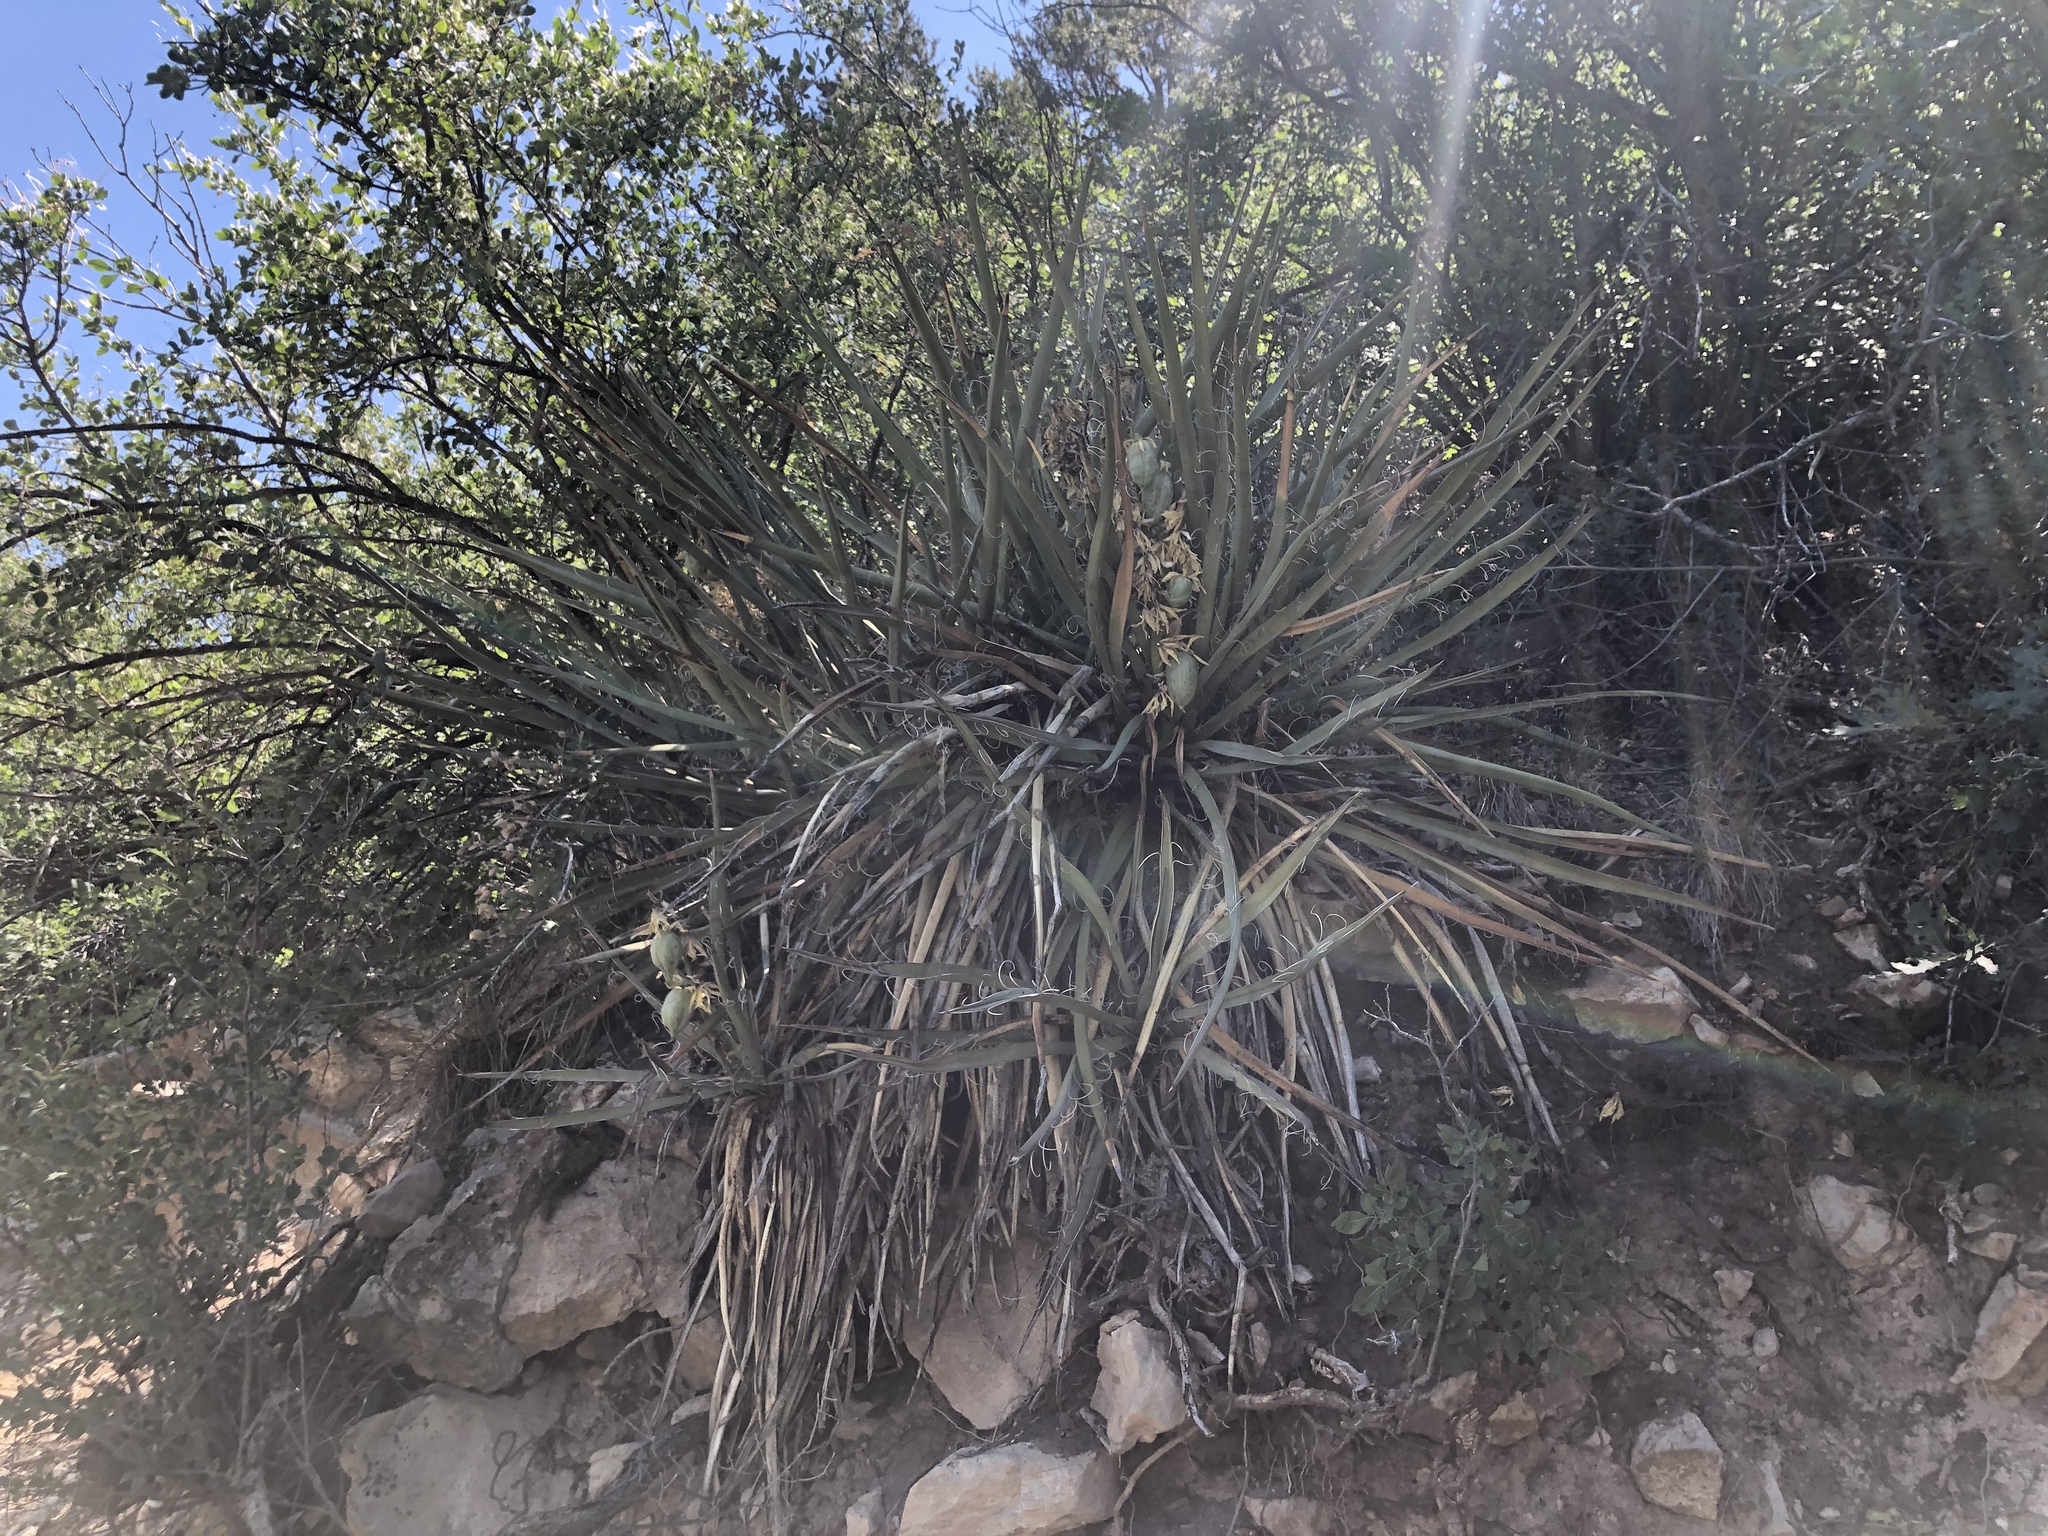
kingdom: Plantae
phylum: Tracheophyta
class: Liliopsida
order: Asparagales
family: Asparagaceae
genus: Yucca
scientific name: Yucca baccata
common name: Banana yucca
